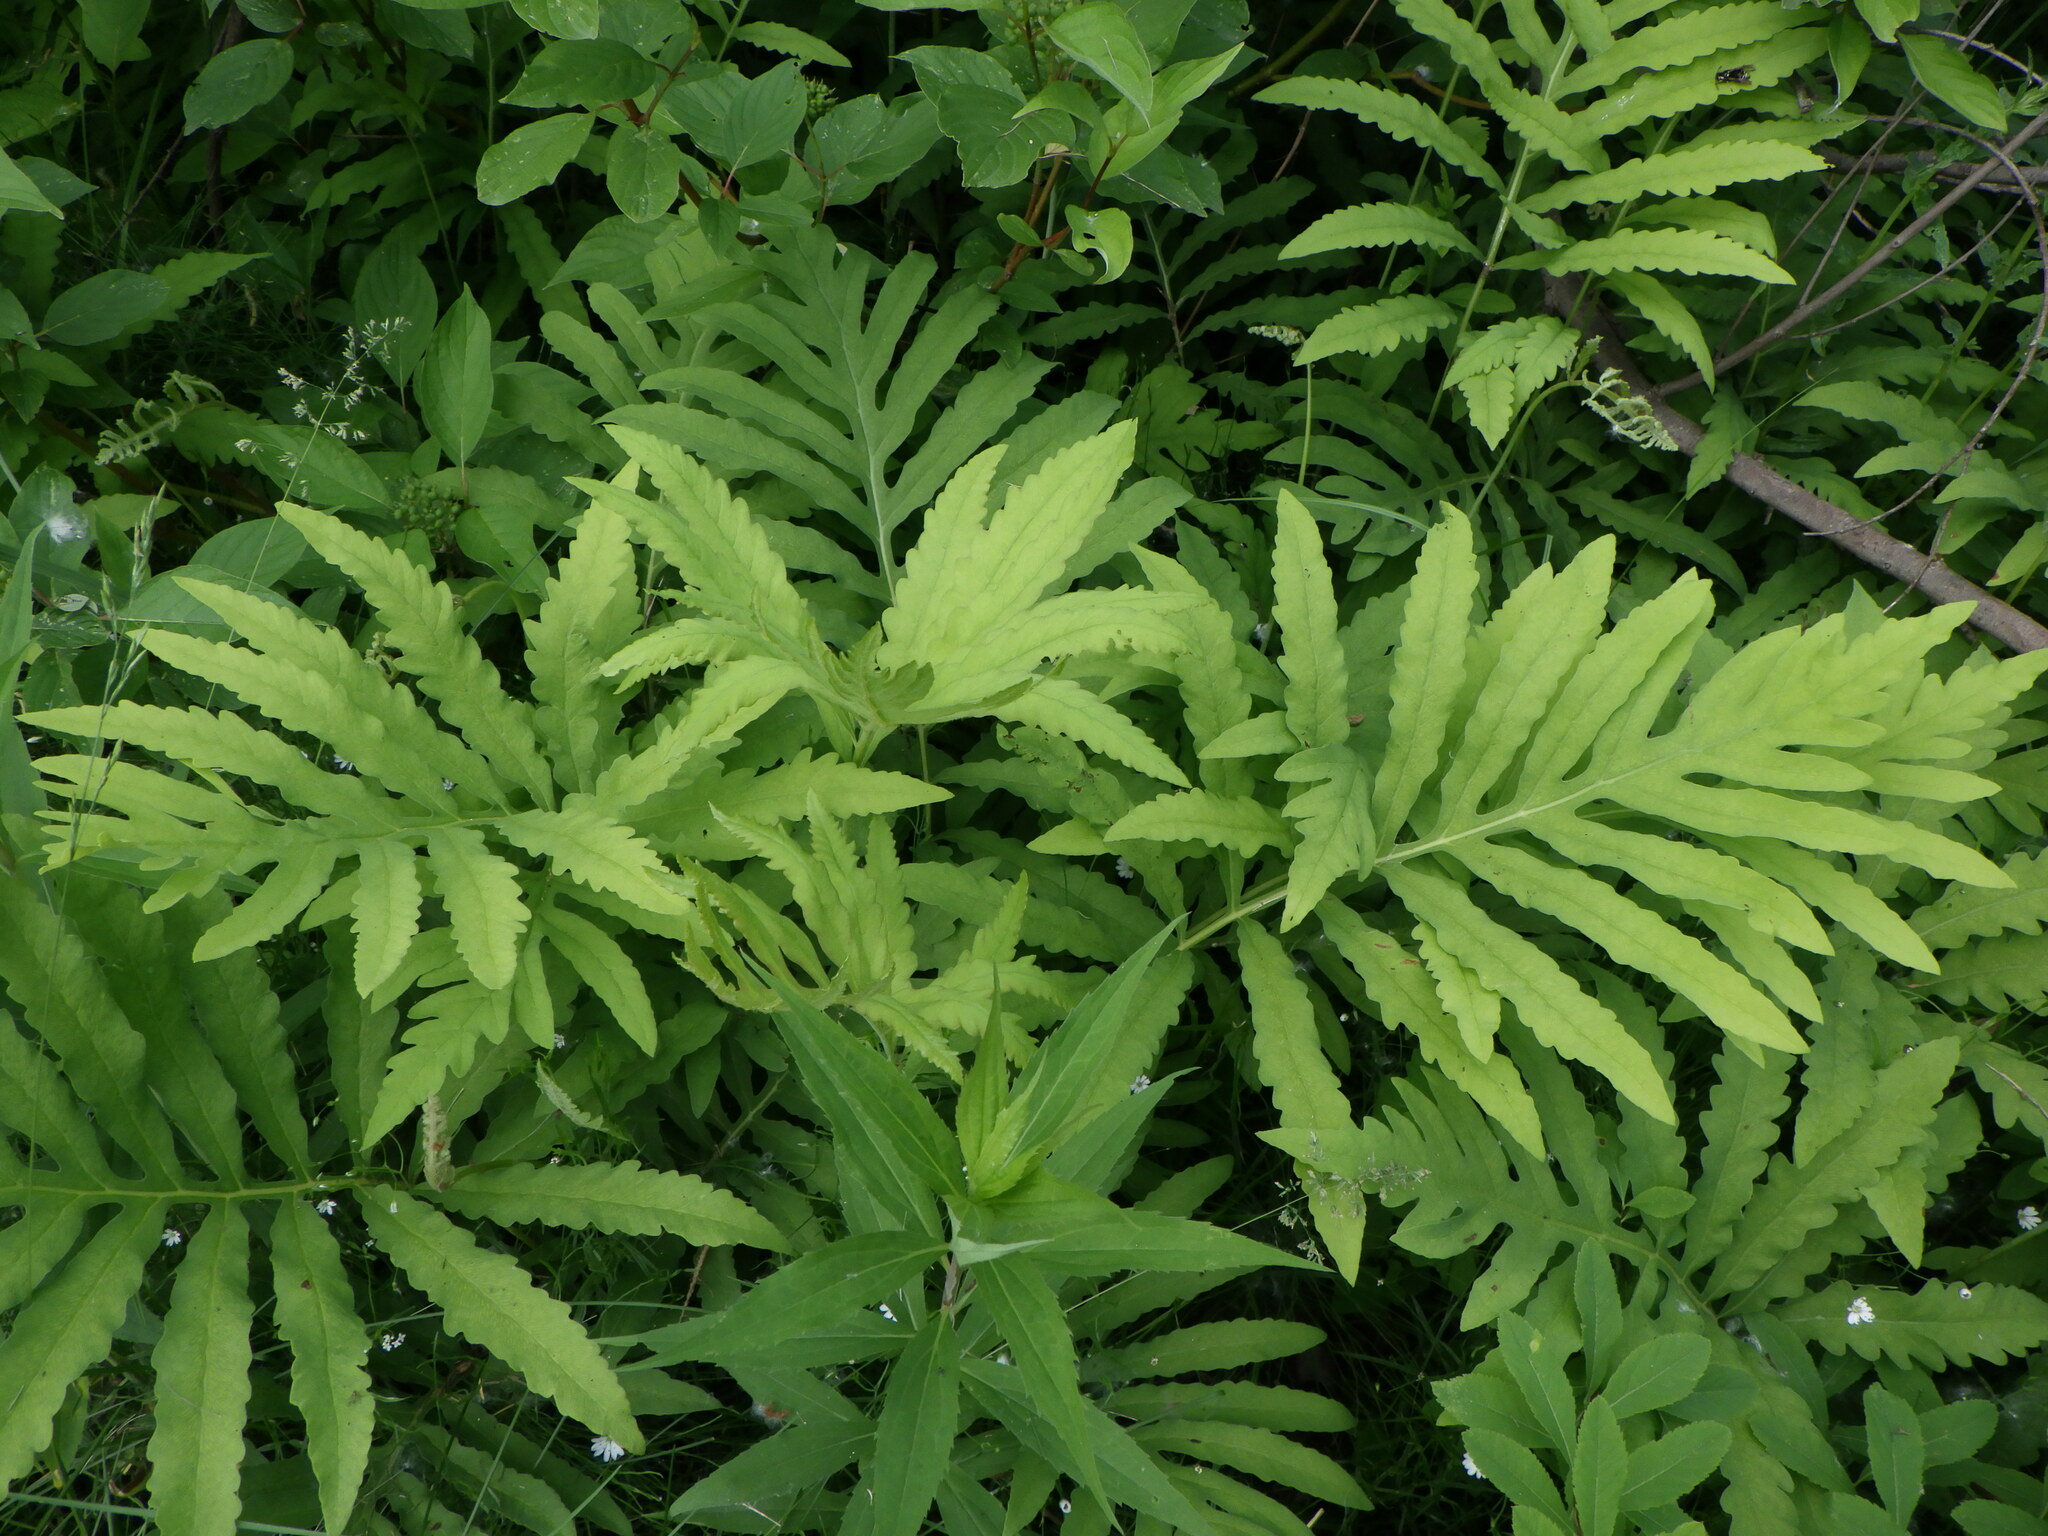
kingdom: Plantae
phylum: Tracheophyta
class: Polypodiopsida
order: Polypodiales
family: Onocleaceae
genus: Onoclea
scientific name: Onoclea sensibilis
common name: Sensitive fern
